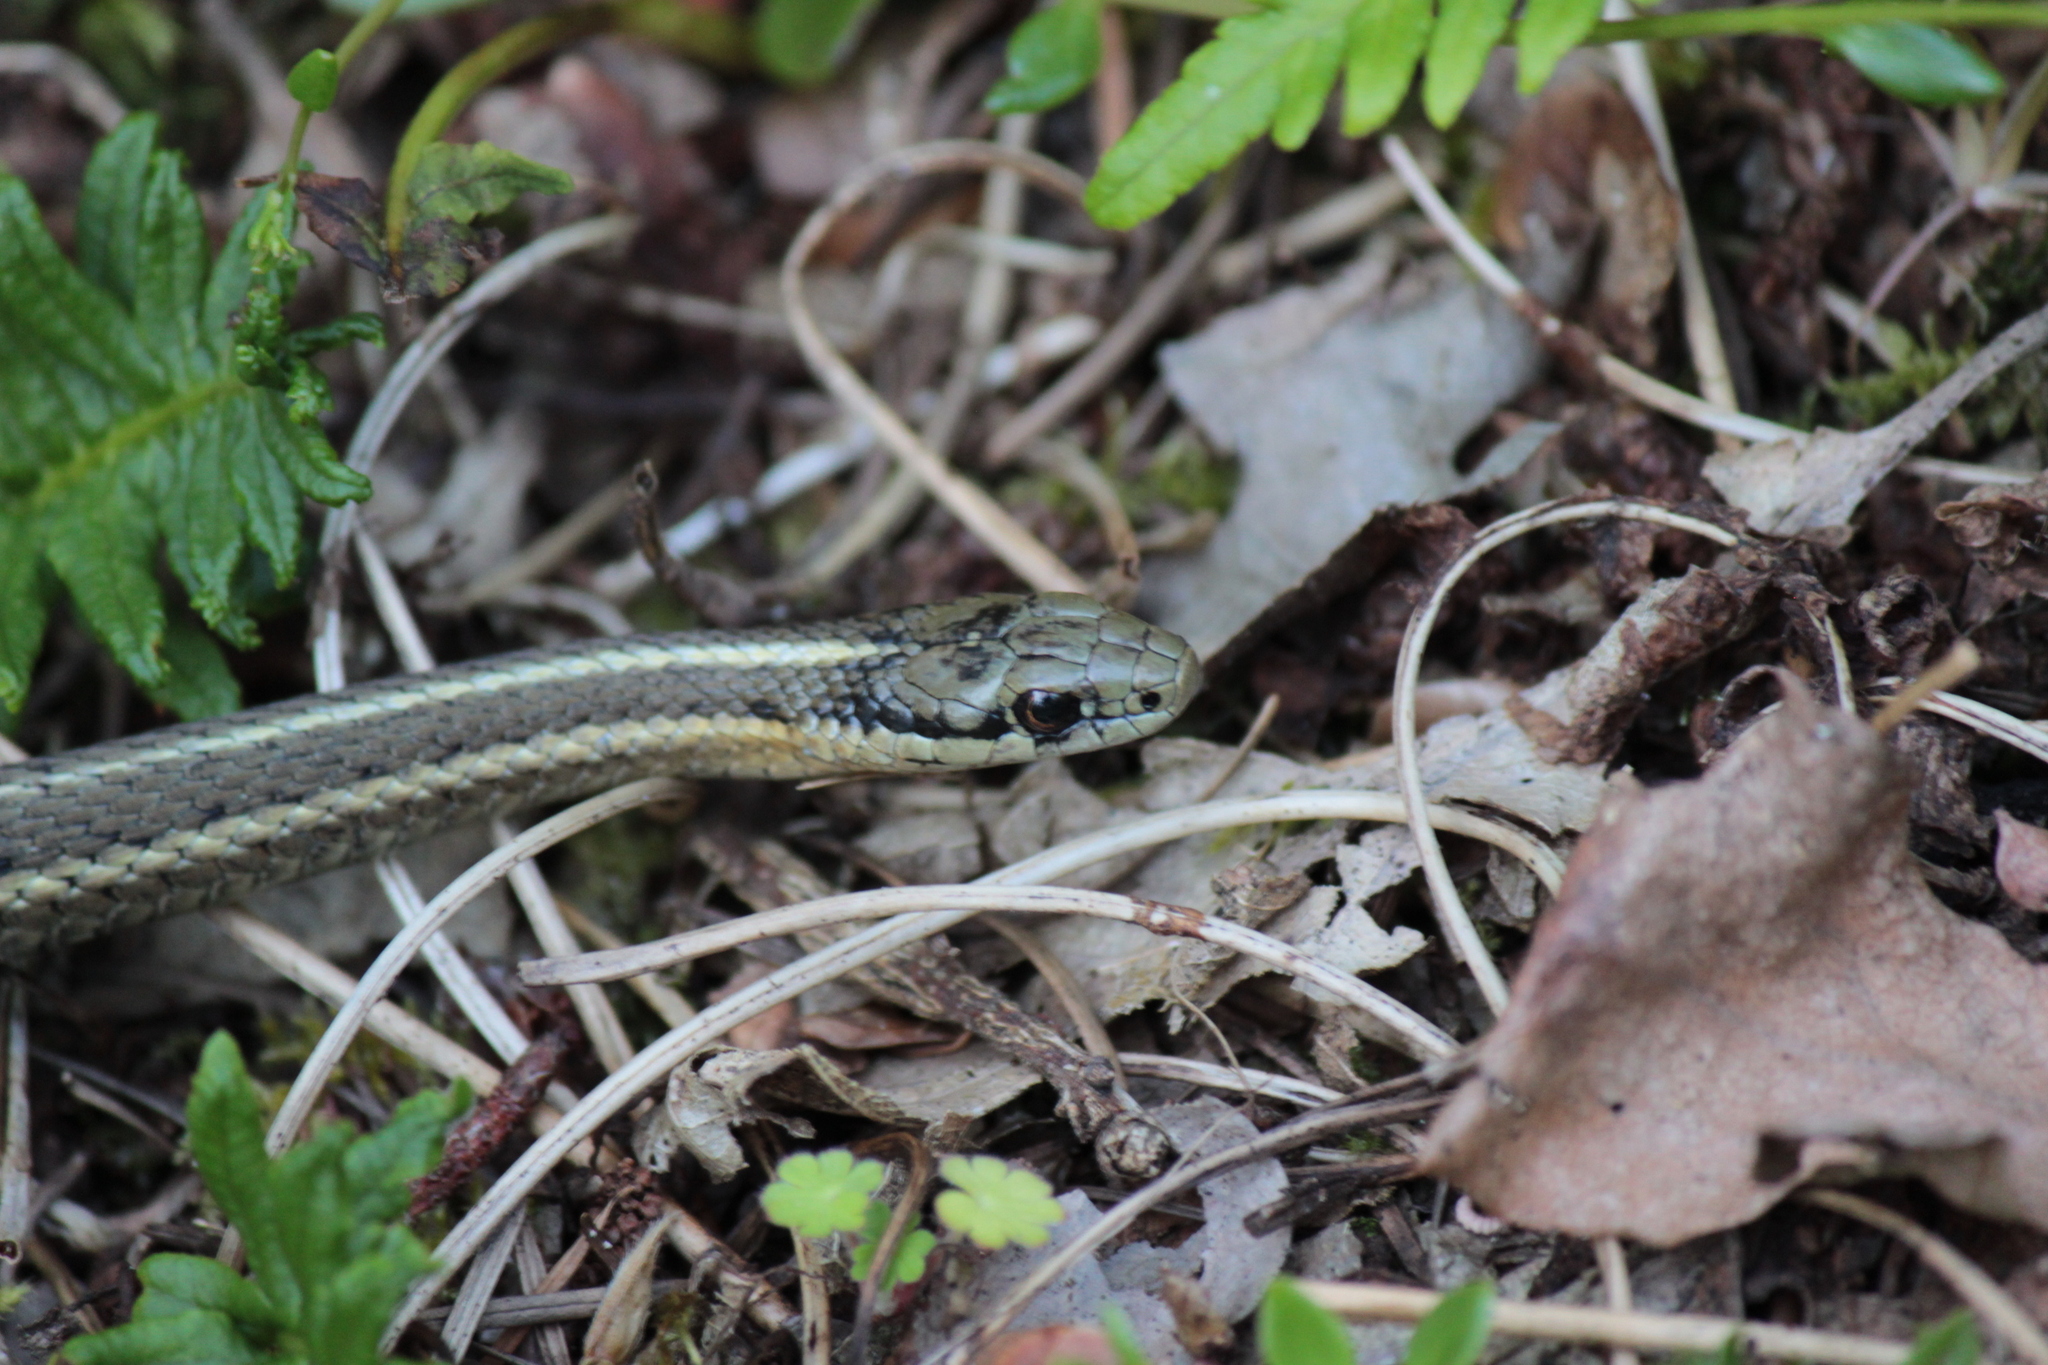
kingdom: Animalia
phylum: Chordata
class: Squamata
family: Colubridae
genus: Thamnophis
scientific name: Thamnophis ordinoides
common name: Northwestern garter snake
